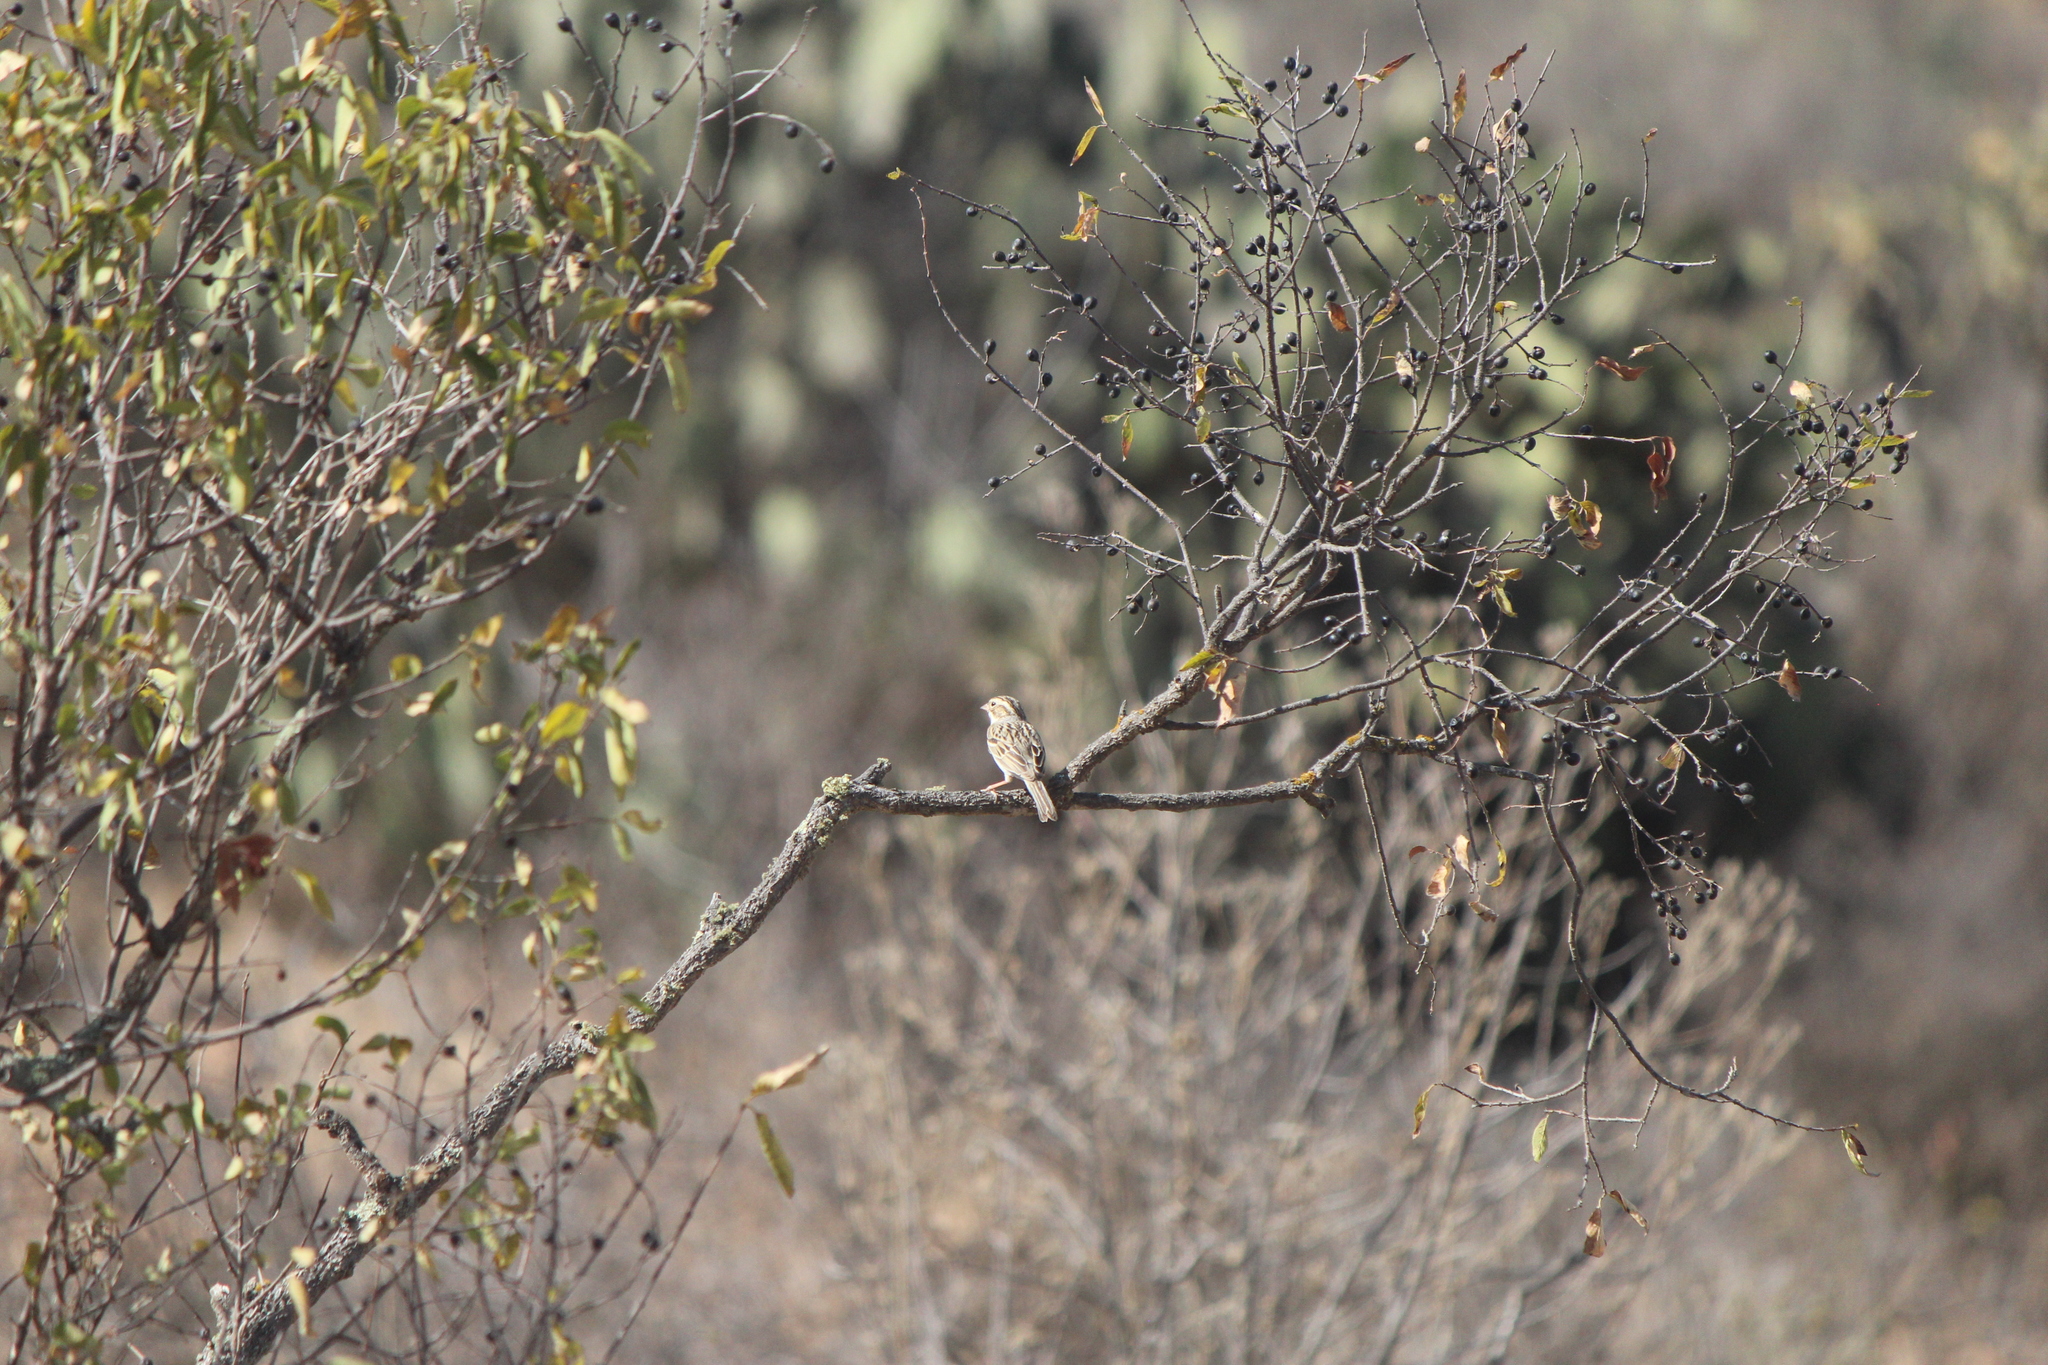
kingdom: Animalia
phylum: Chordata
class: Aves
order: Passeriformes
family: Passerellidae
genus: Spizella
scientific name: Spizella pallida
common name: Clay-colored sparrow
